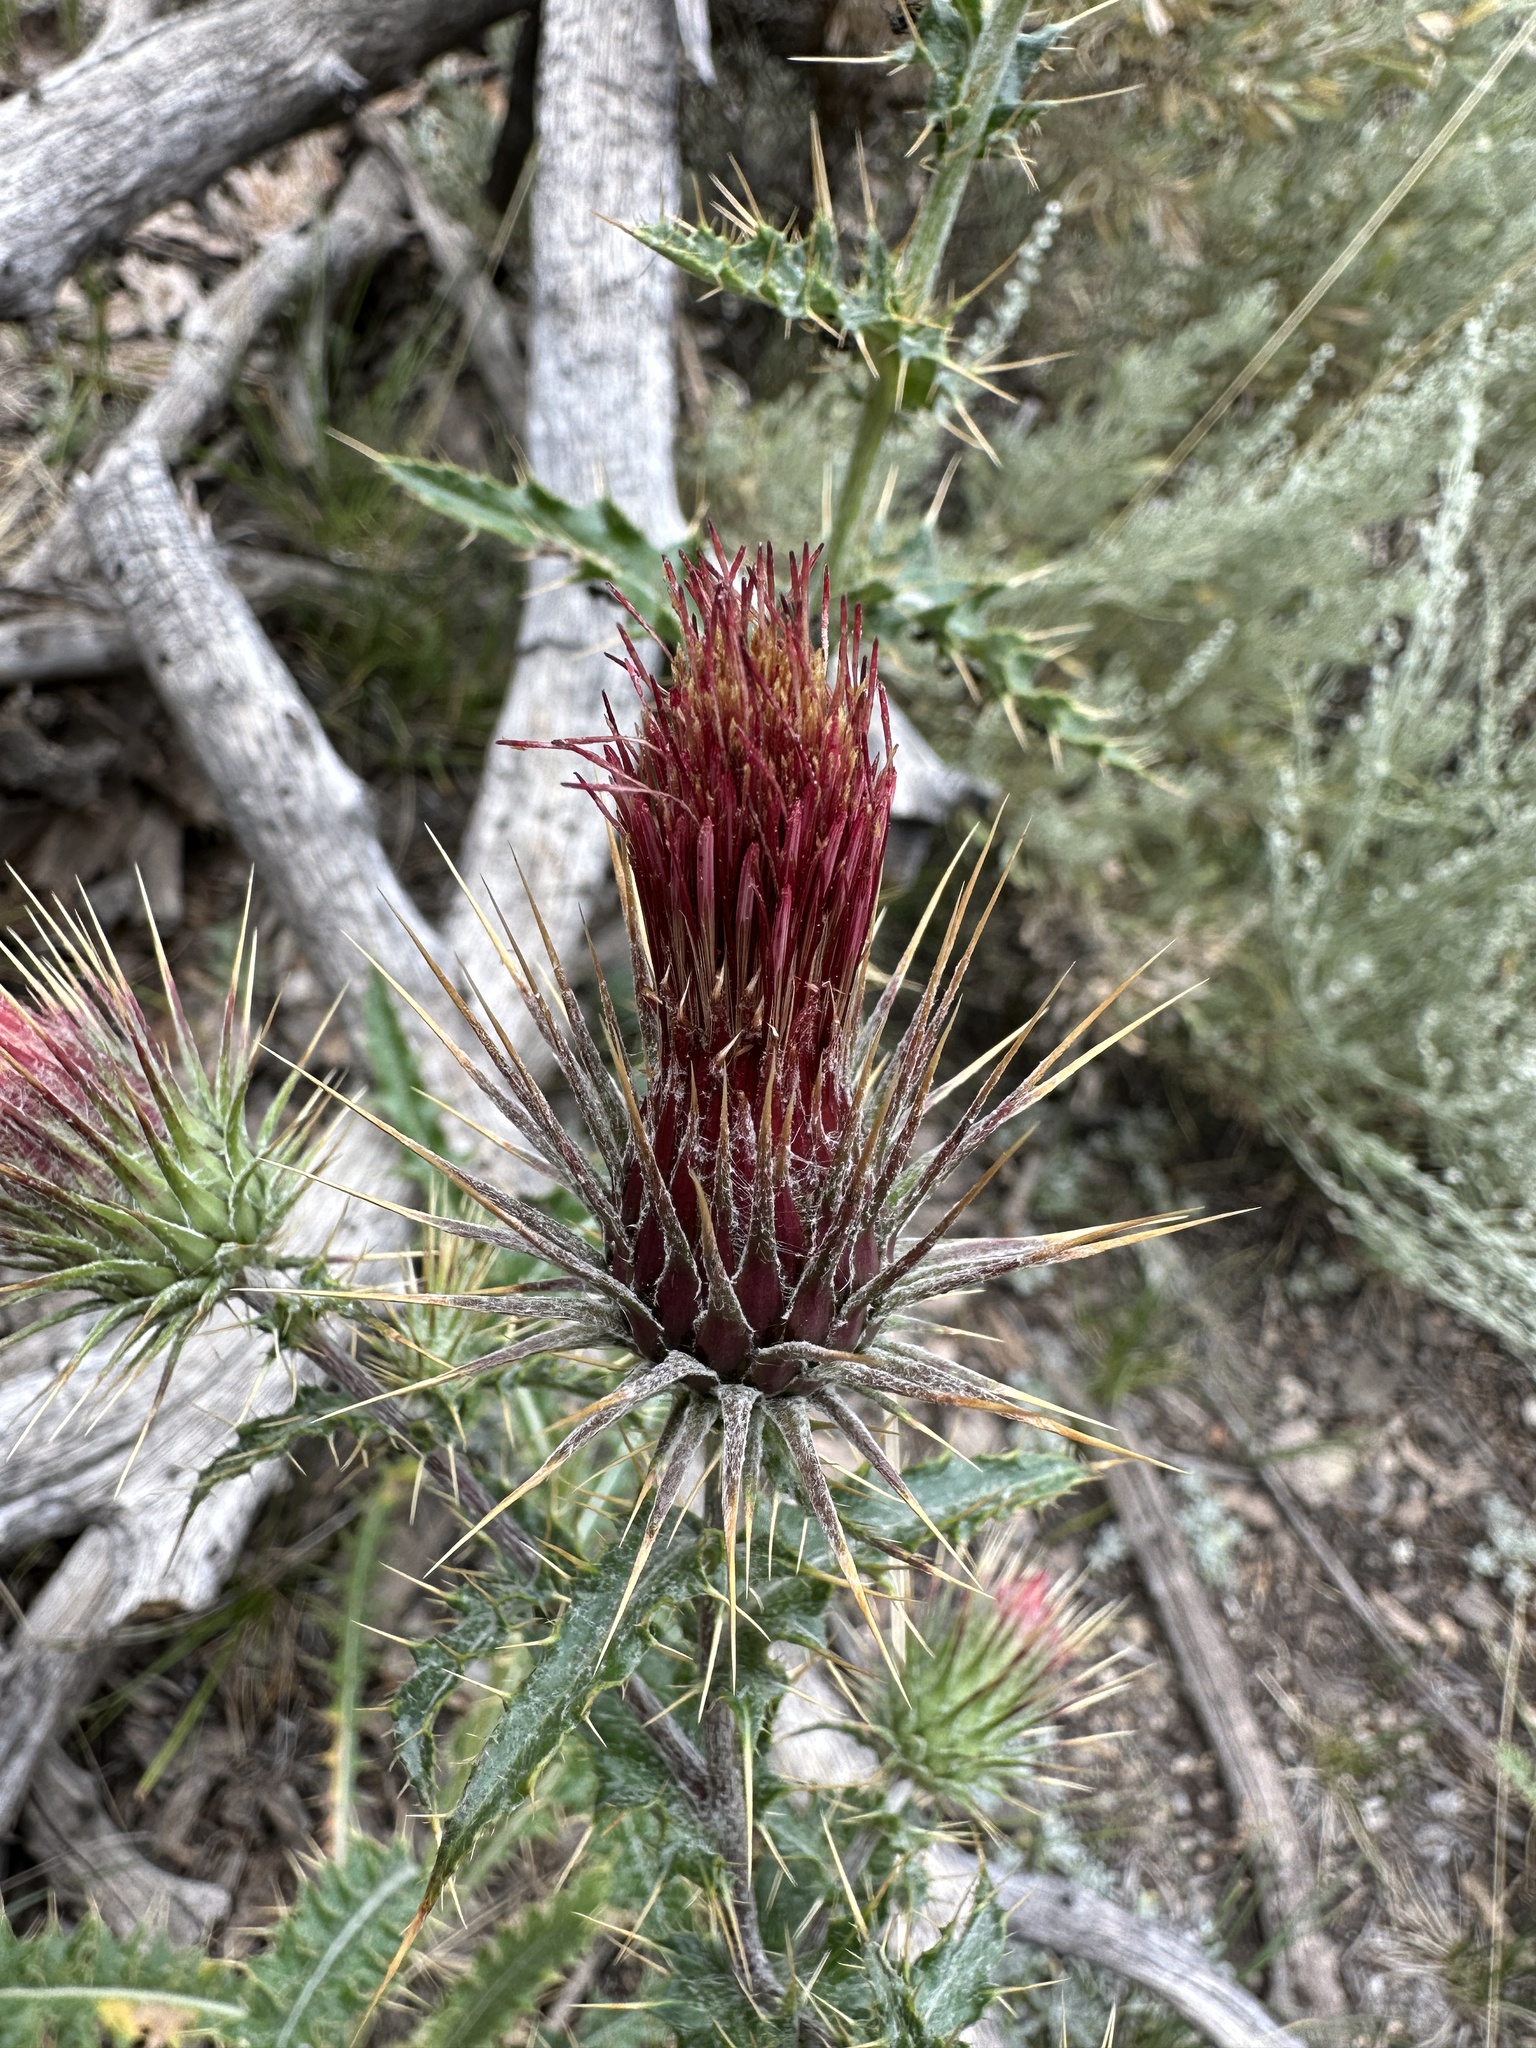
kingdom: Plantae
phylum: Tracheophyta
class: Magnoliopsida
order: Asterales
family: Asteraceae
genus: Cirsium
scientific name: Cirsium arizonicum
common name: Arizona thistle
